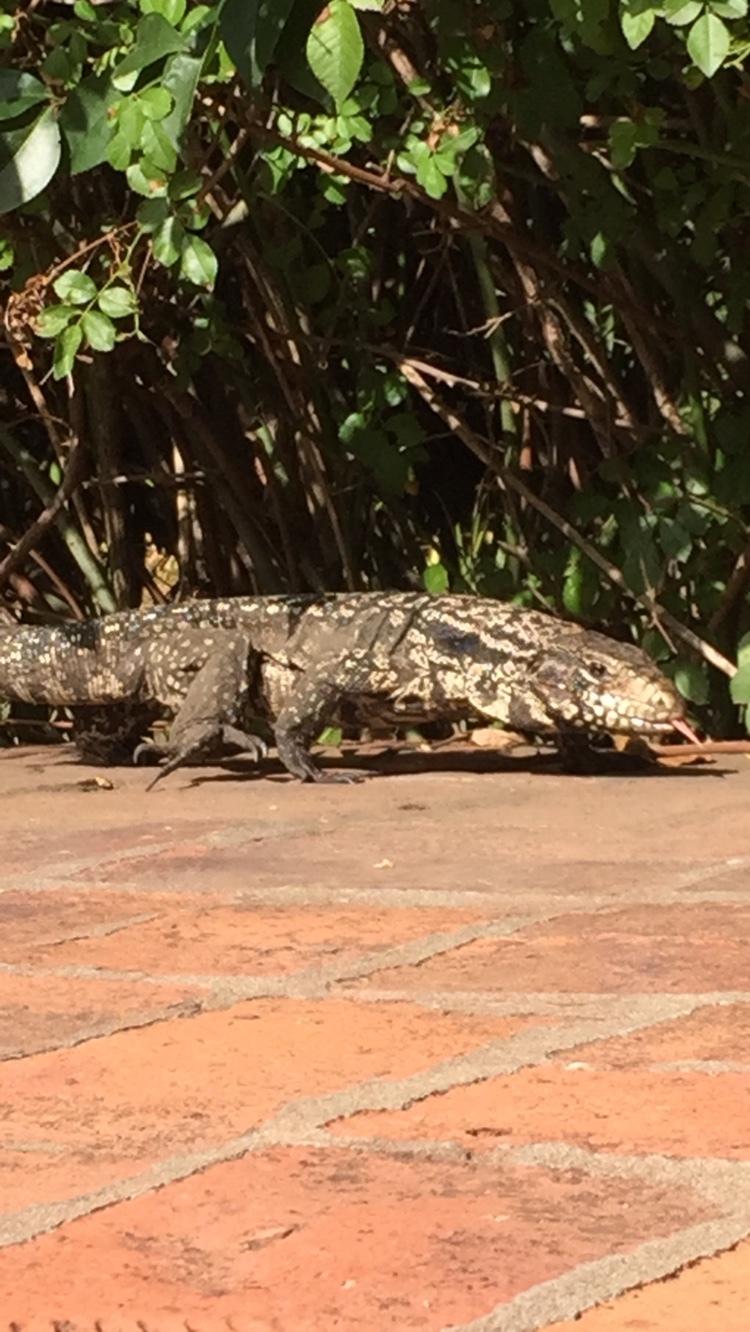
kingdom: Animalia
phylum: Chordata
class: Squamata
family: Teiidae
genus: Salvator
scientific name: Salvator merianae
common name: Argentine black and white tegu
